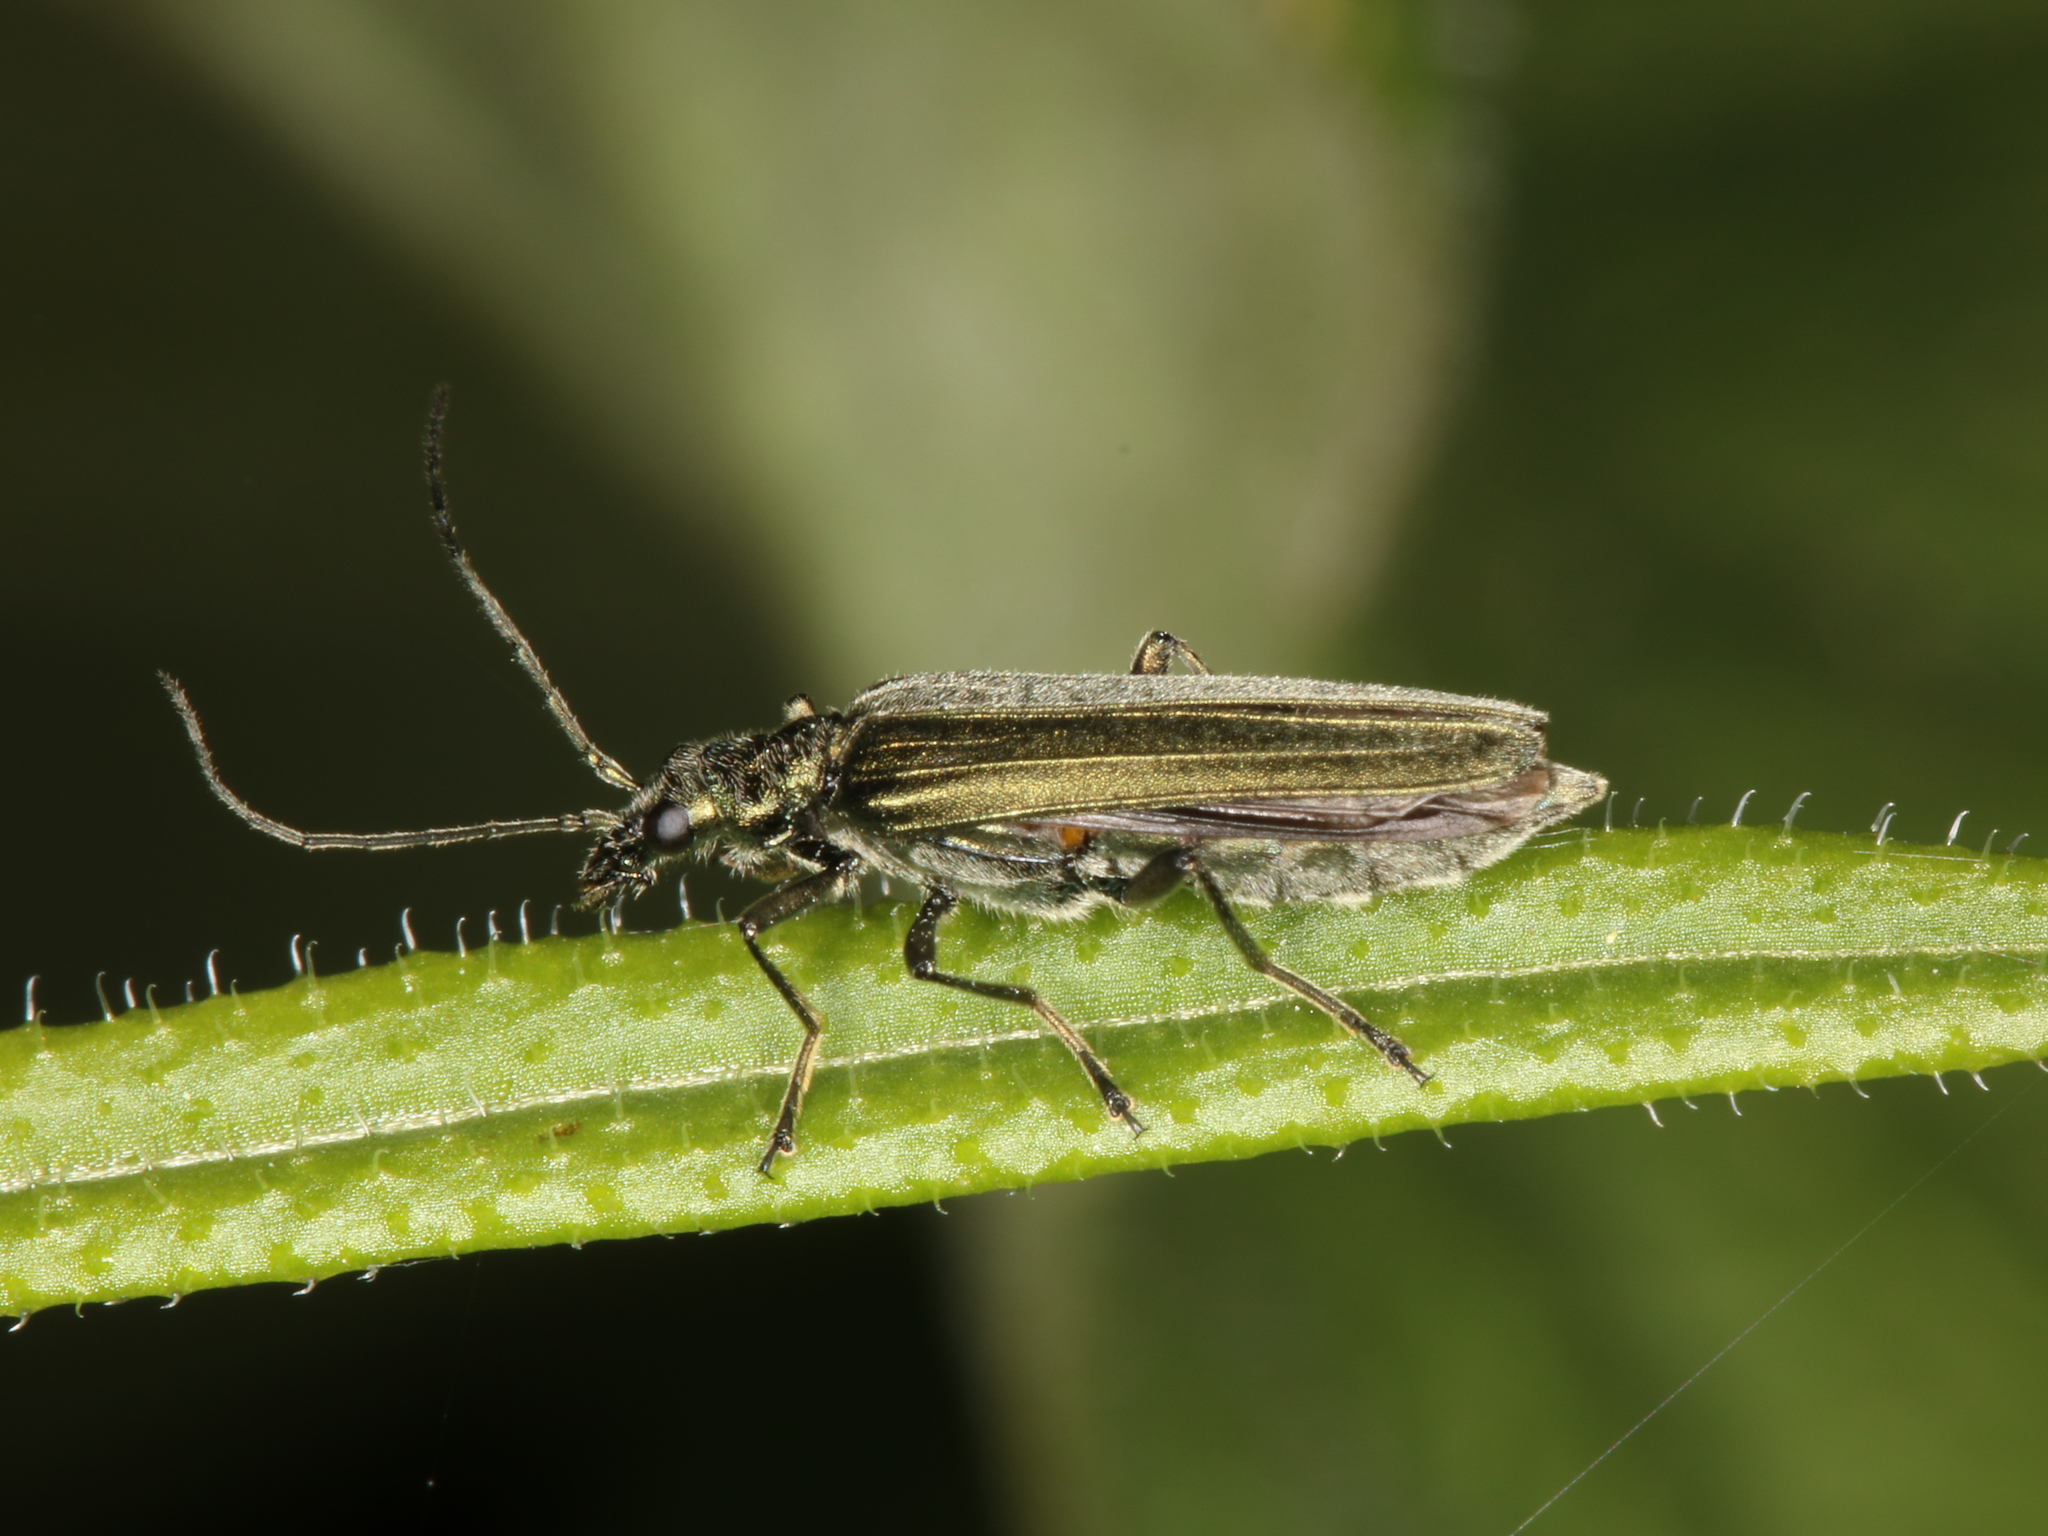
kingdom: Animalia
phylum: Arthropoda
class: Insecta
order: Coleoptera
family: Oedemeridae
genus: Oedemera
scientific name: Oedemera virescens
